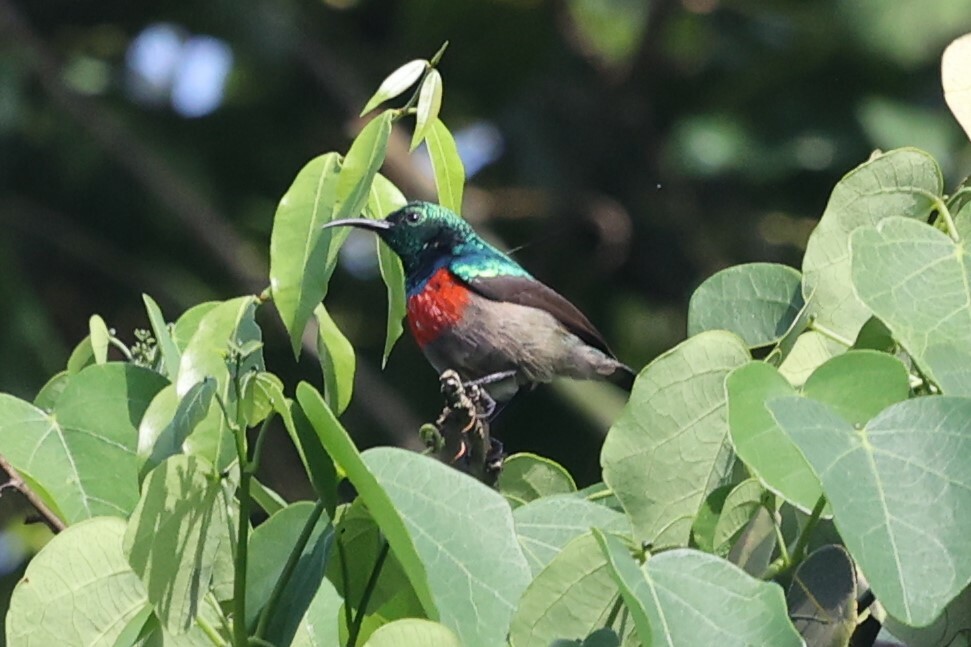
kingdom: Animalia
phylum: Chordata
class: Aves
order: Passeriformes
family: Nectariniidae
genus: Cinnyris
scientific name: Cinnyris chloropygius
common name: Olive-bellied sunbird
